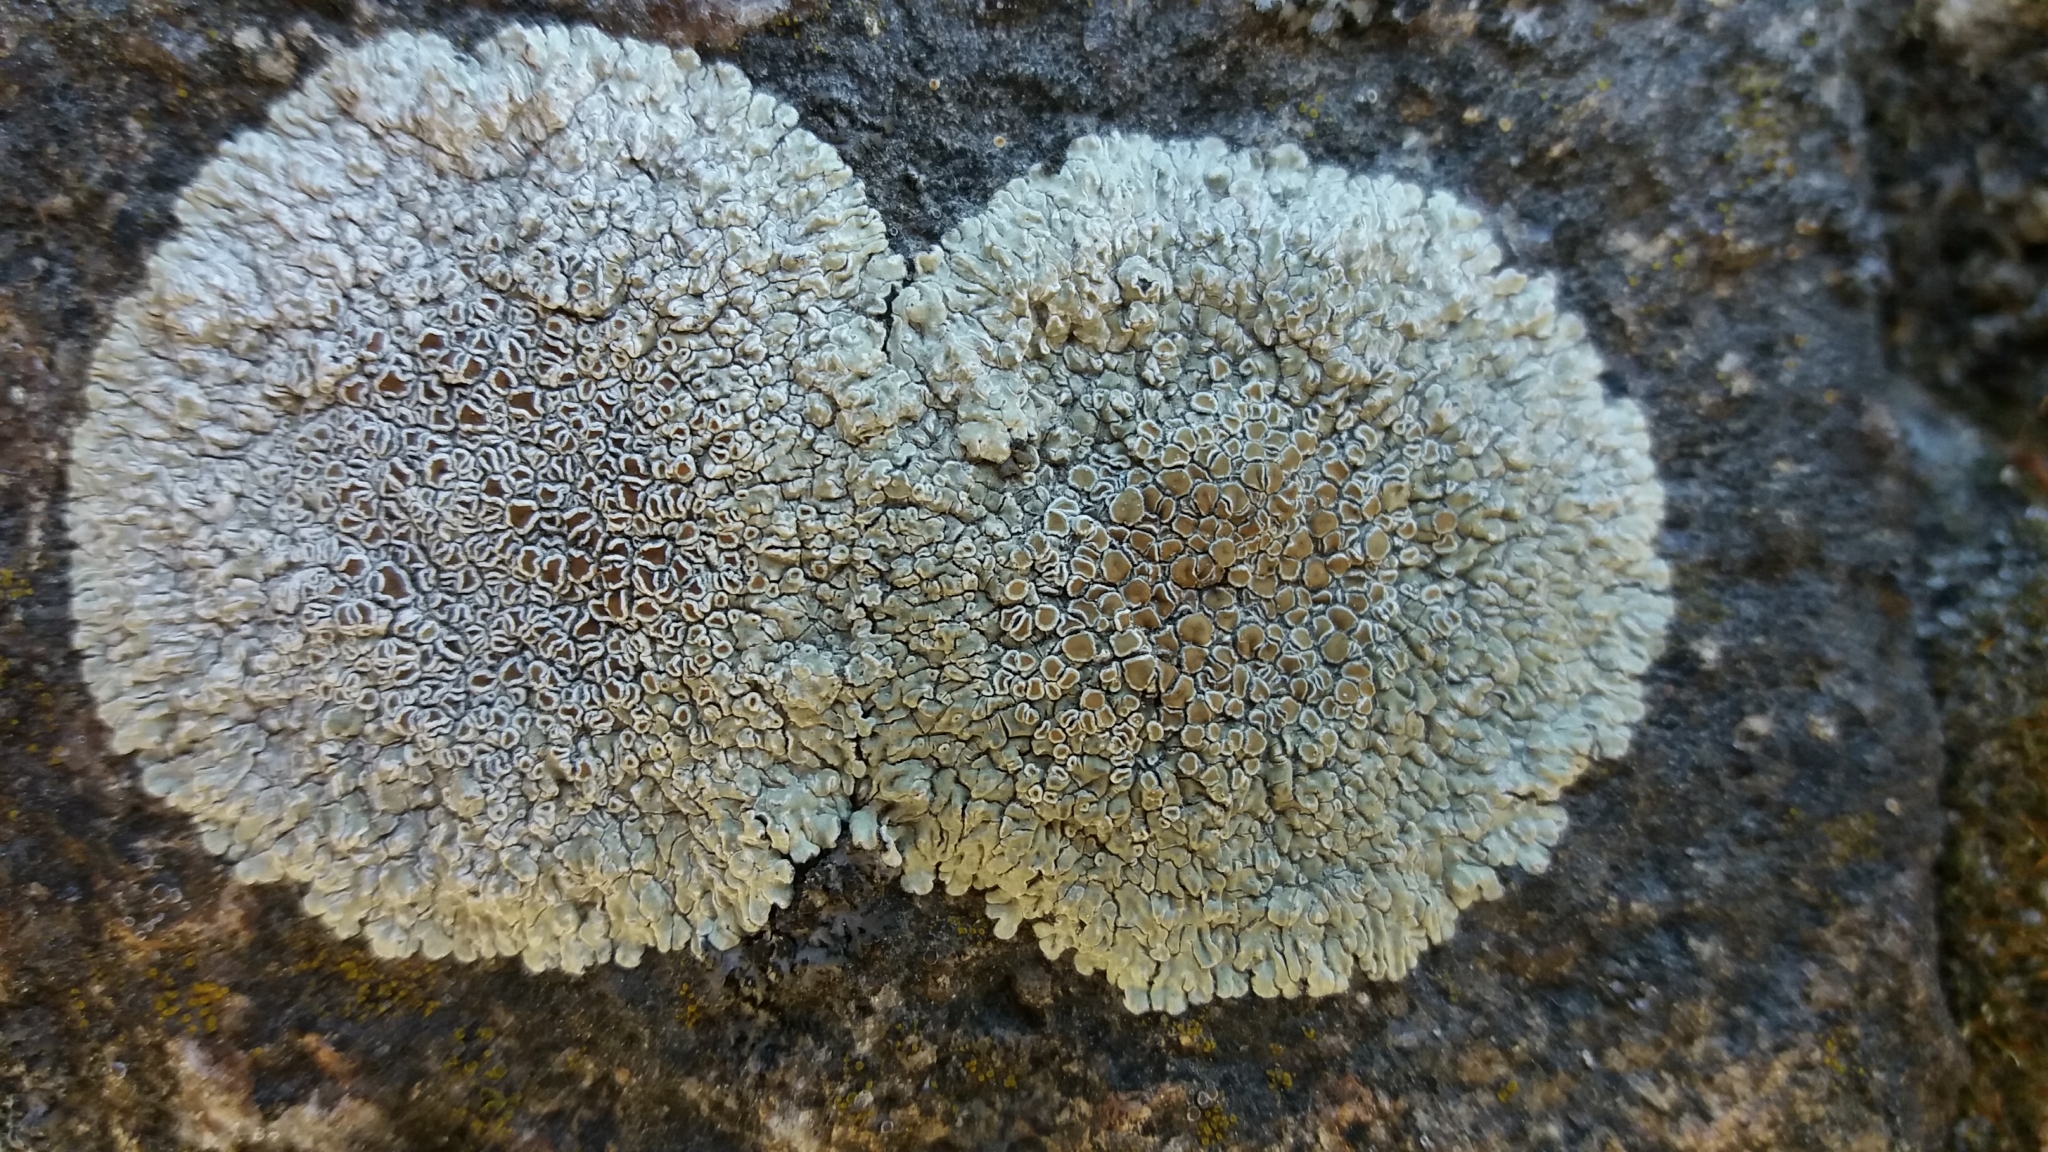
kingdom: Fungi
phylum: Ascomycota
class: Lecanoromycetes
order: Lecanorales
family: Lecanoraceae
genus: Protoparmeliopsis
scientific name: Protoparmeliopsis muralis
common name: Stonewall rim lichen
